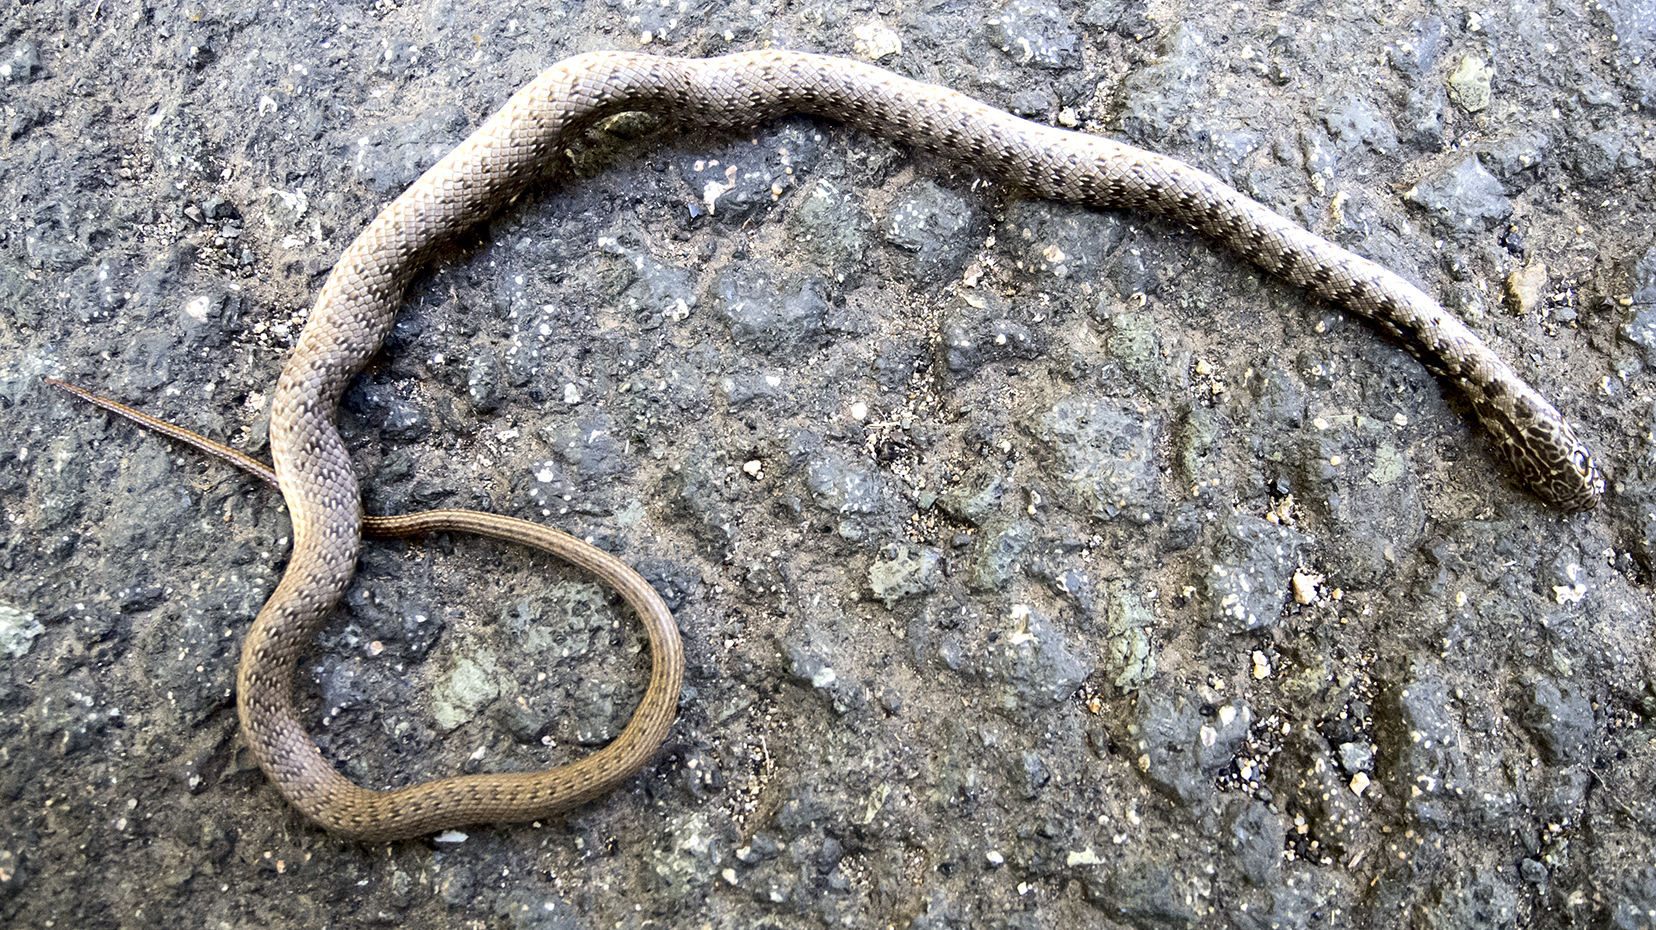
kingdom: Animalia
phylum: Chordata
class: Squamata
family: Colubridae
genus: Dolichophis
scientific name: Dolichophis caspius
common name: Large whip snake
